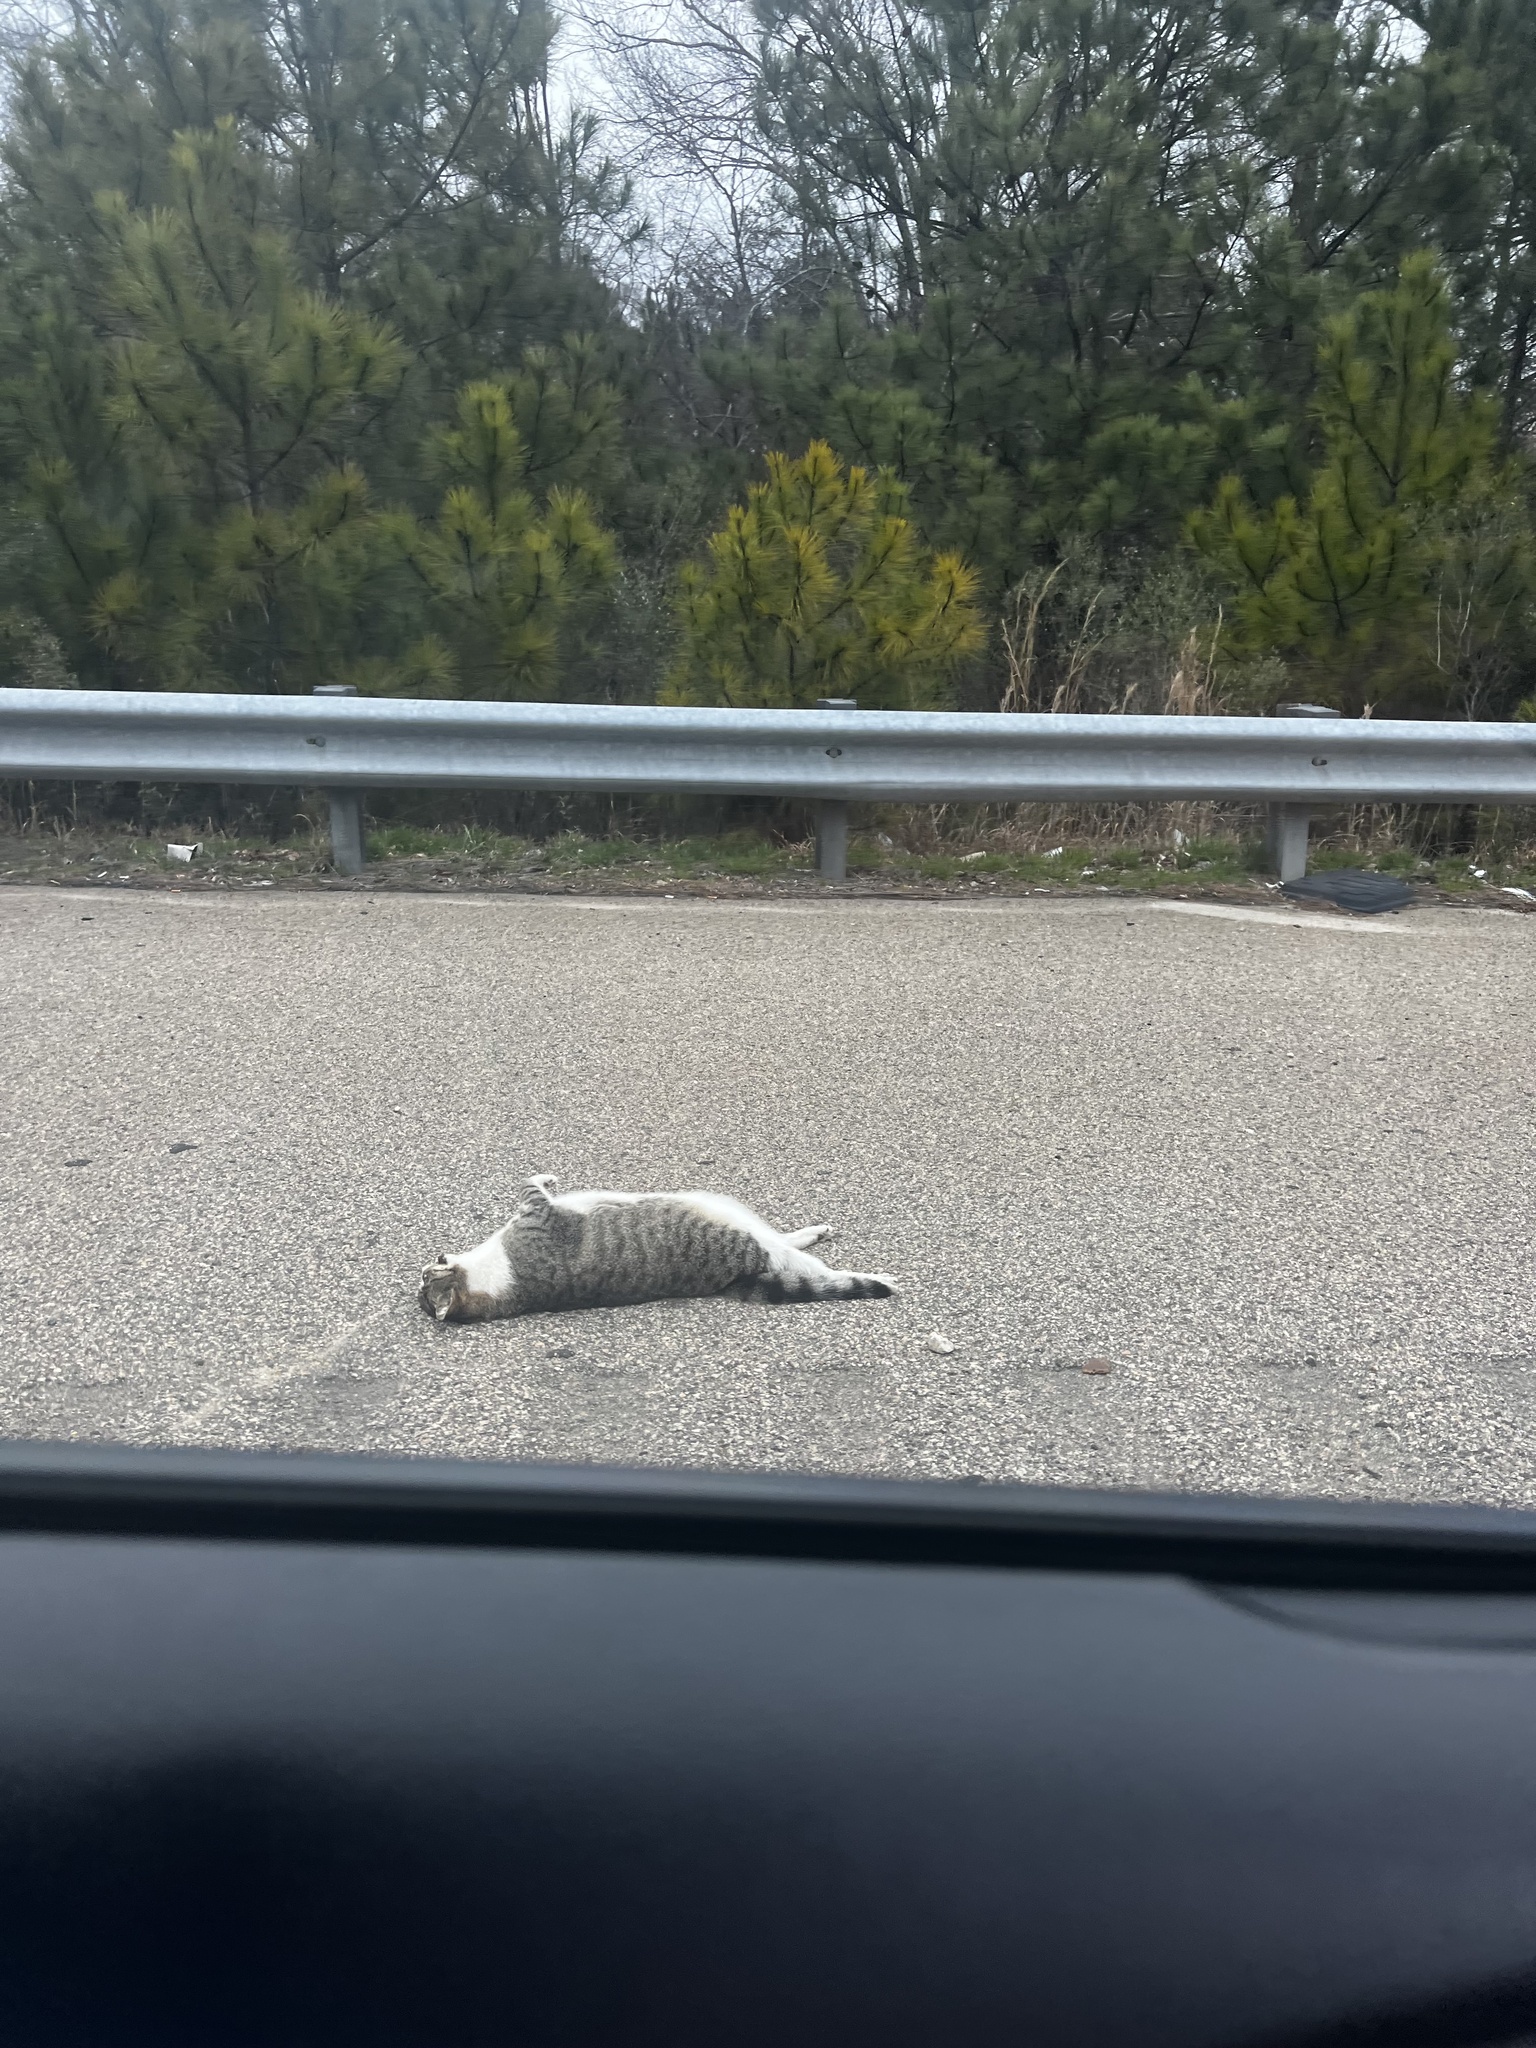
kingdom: Animalia
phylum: Chordata
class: Mammalia
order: Carnivora
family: Felidae
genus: Felis
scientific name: Felis catus
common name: Domestic cat
